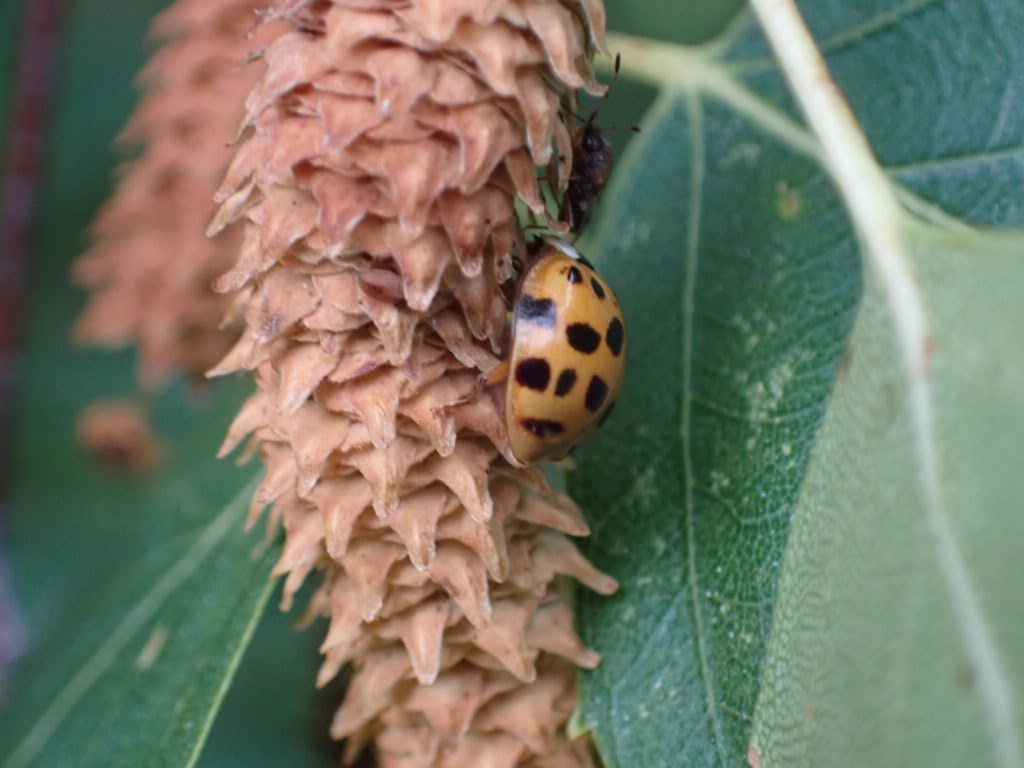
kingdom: Animalia
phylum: Arthropoda
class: Insecta
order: Coleoptera
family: Coccinellidae
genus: Harmonia
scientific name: Harmonia axyridis
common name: Harlequin ladybird
